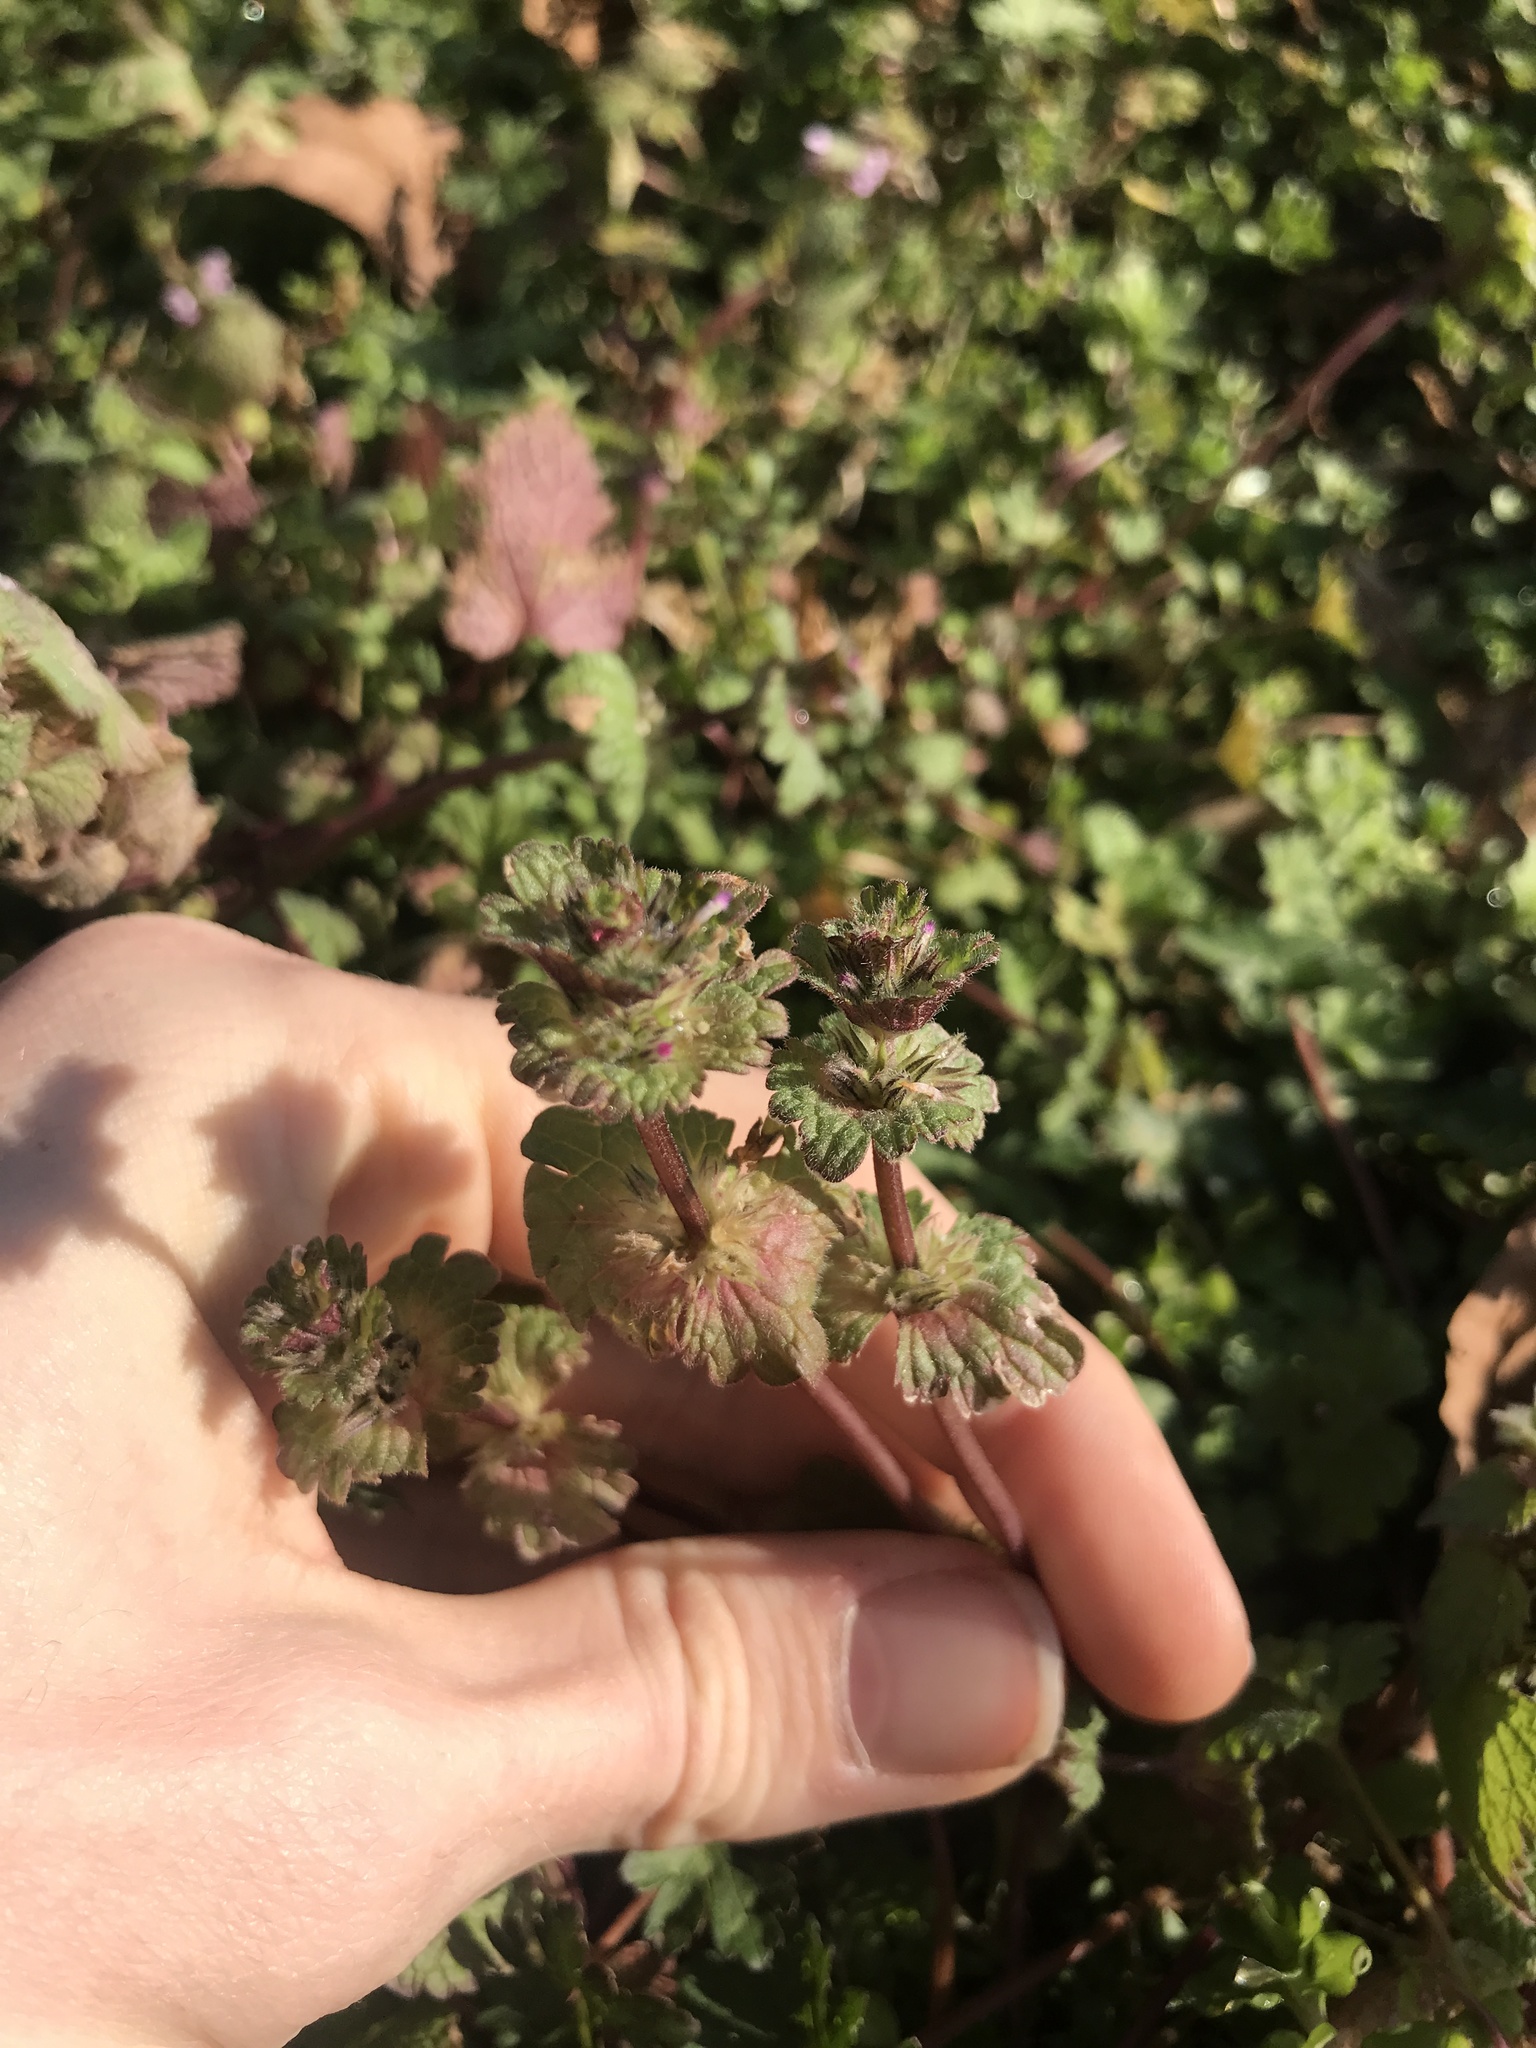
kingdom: Plantae
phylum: Tracheophyta
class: Magnoliopsida
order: Lamiales
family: Lamiaceae
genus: Lamium
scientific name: Lamium amplexicaule
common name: Henbit dead-nettle
